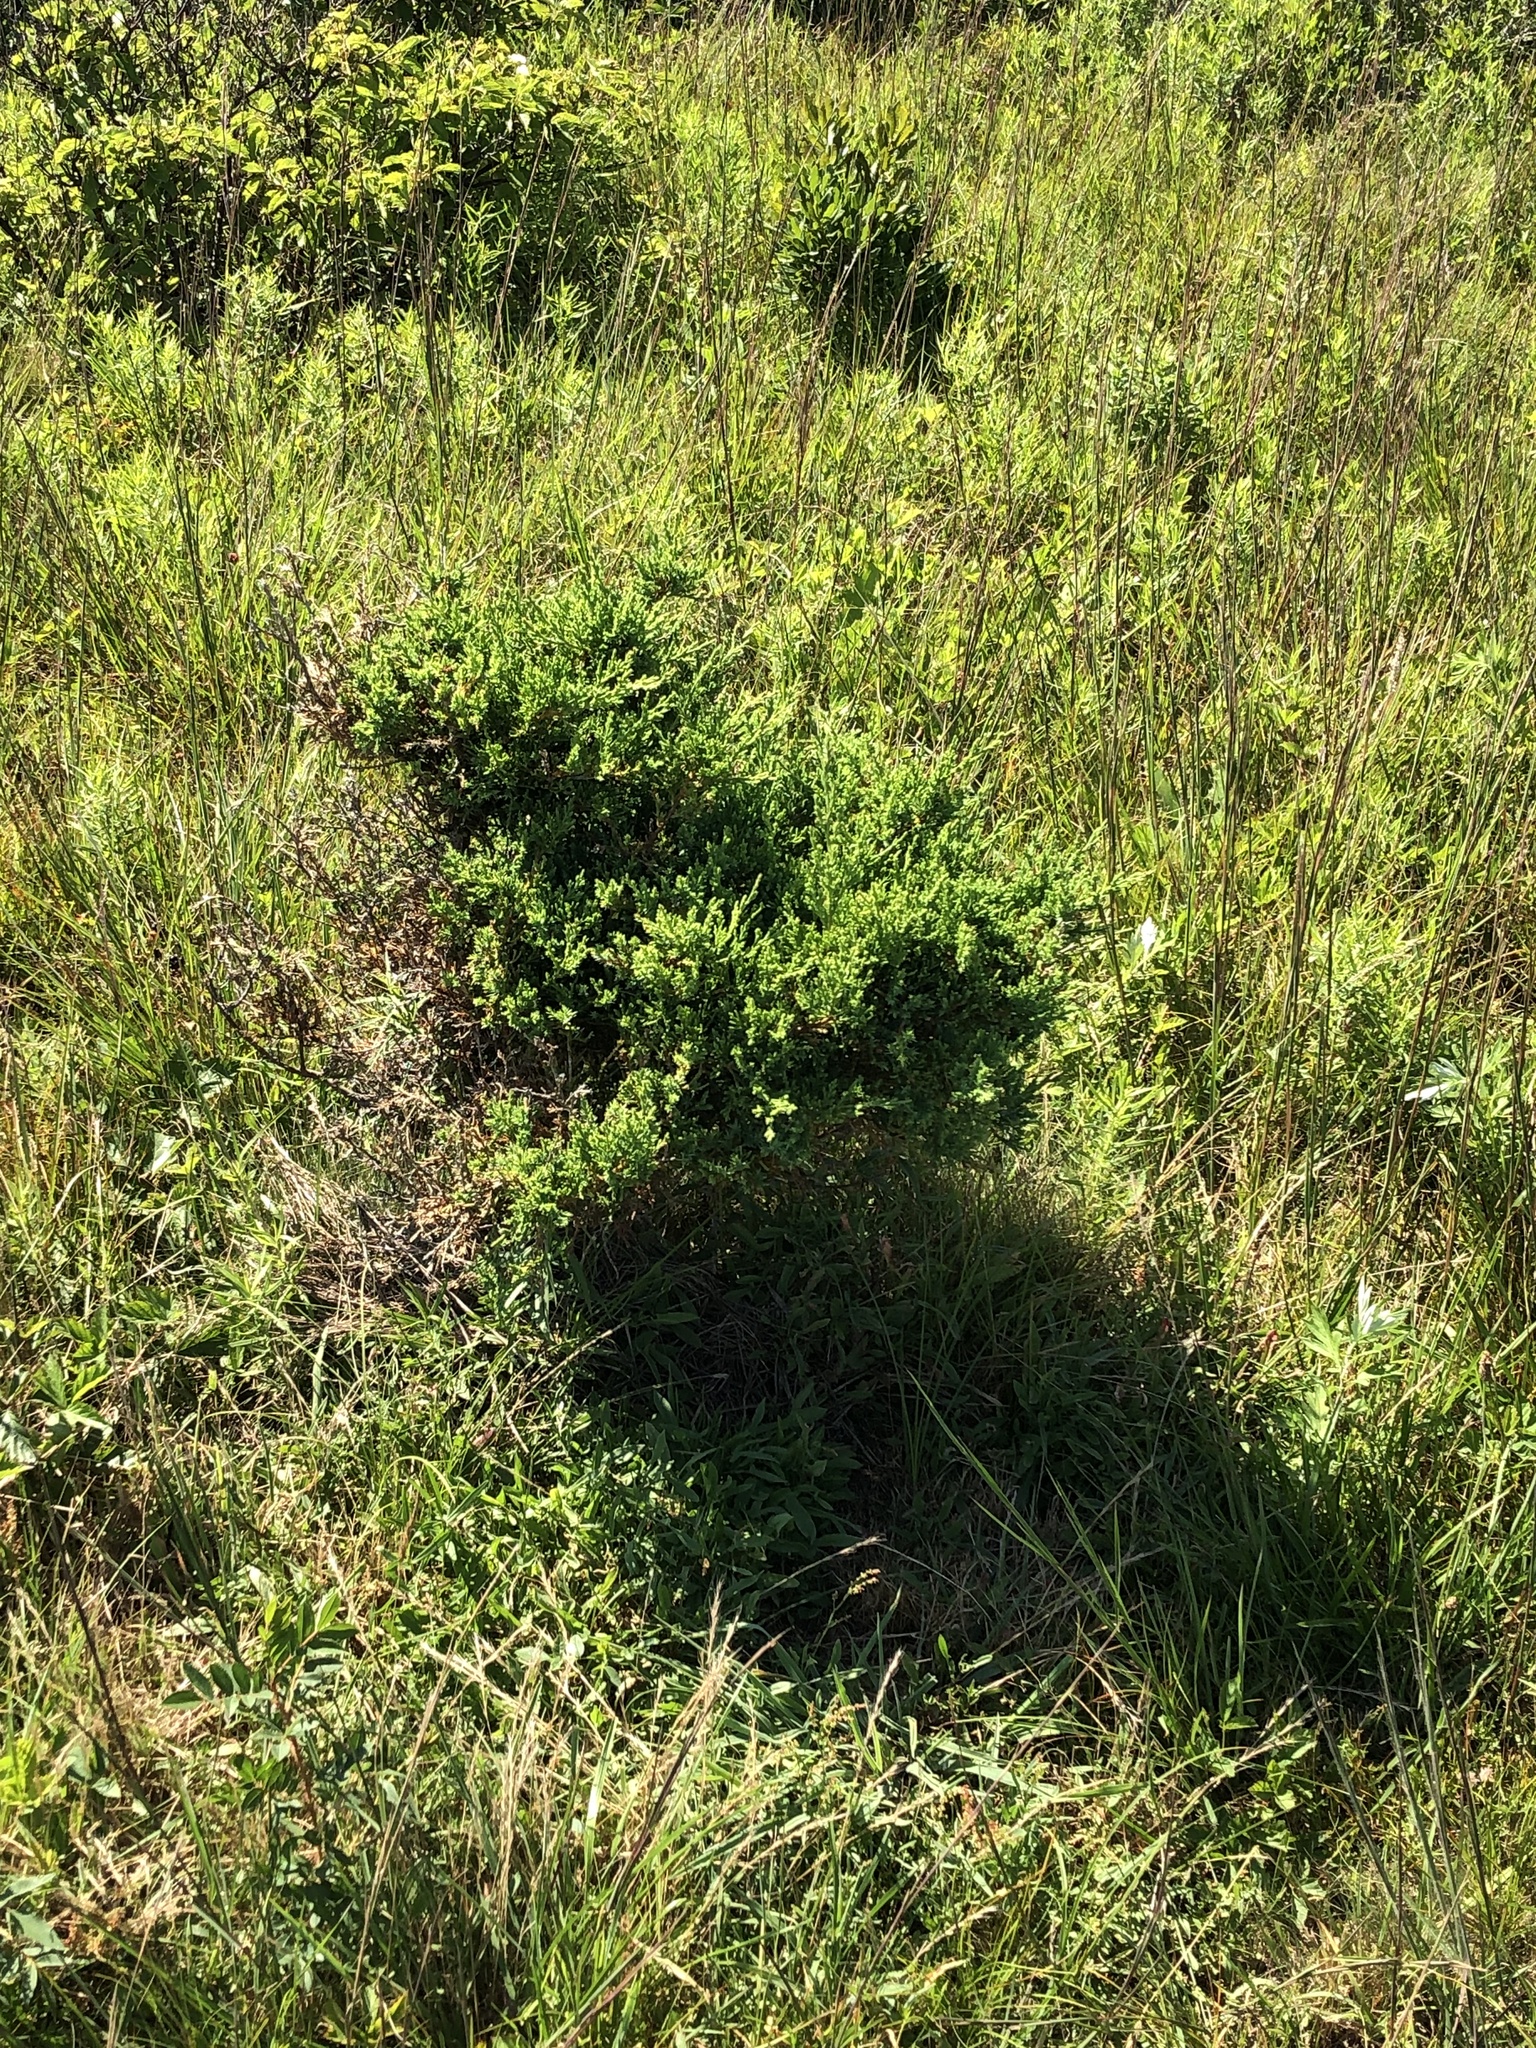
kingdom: Plantae
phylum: Tracheophyta
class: Pinopsida
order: Pinales
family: Cupressaceae
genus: Juniperus
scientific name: Juniperus virginiana
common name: Red juniper
